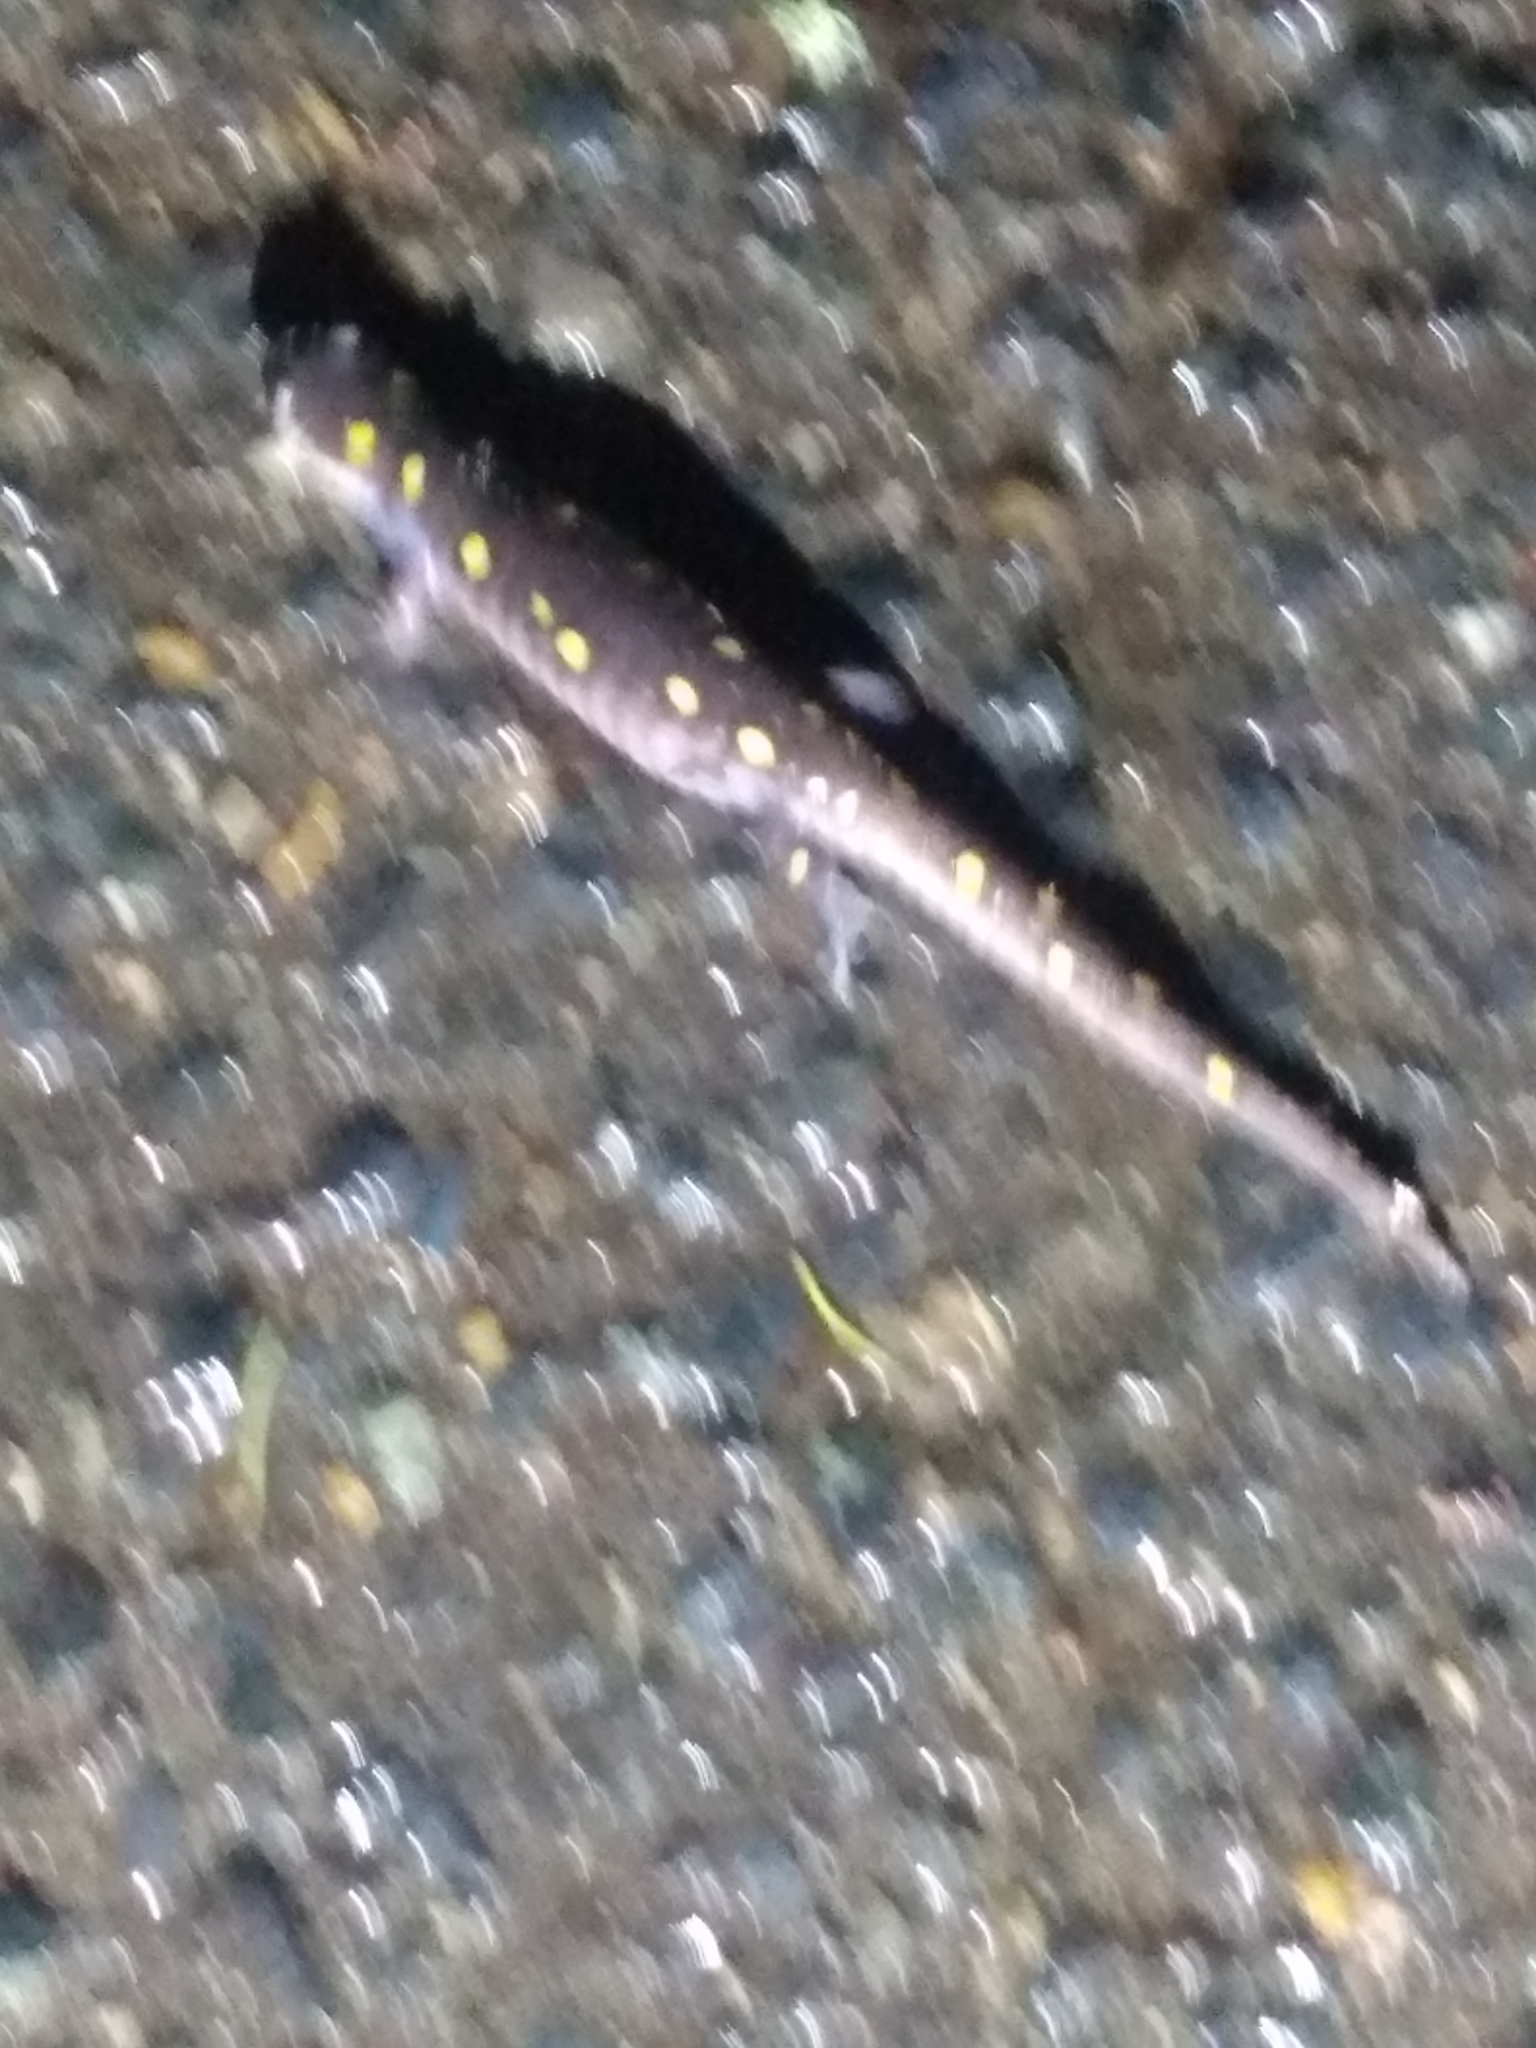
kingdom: Animalia
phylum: Chordata
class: Amphibia
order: Caudata
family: Ambystomatidae
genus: Ambystoma
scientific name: Ambystoma maculatum
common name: Spotted salamander
